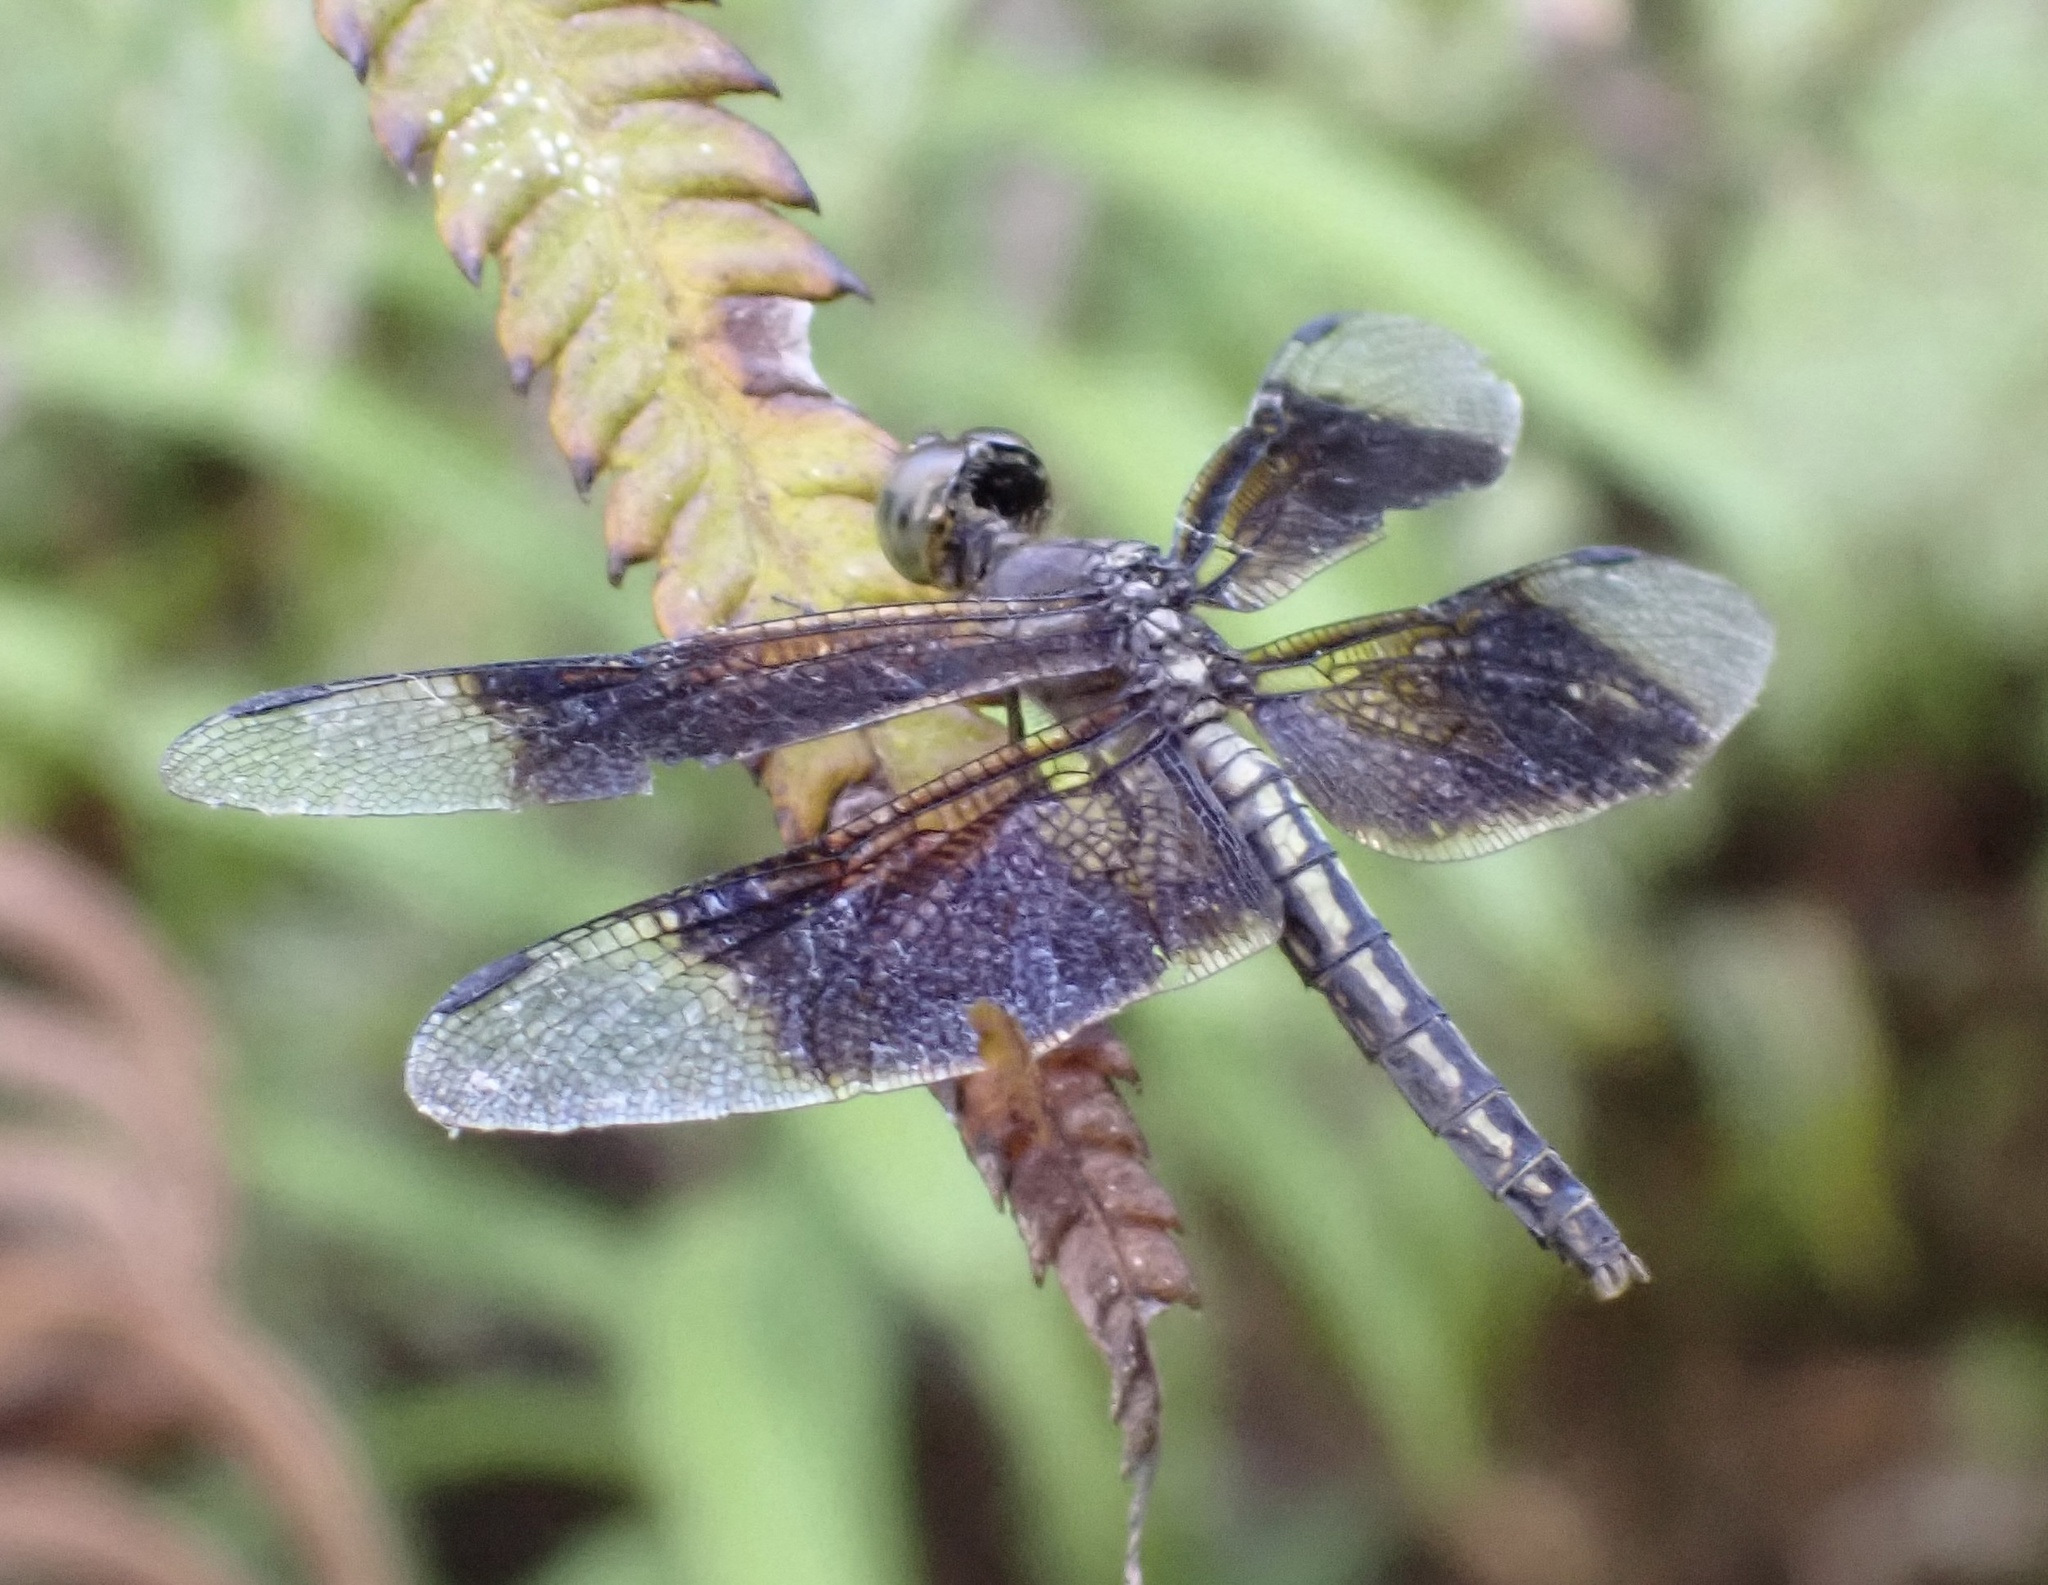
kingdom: Animalia
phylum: Arthropoda
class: Insecta
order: Odonata
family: Libellulidae
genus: Neurothemis
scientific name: Neurothemis decora
